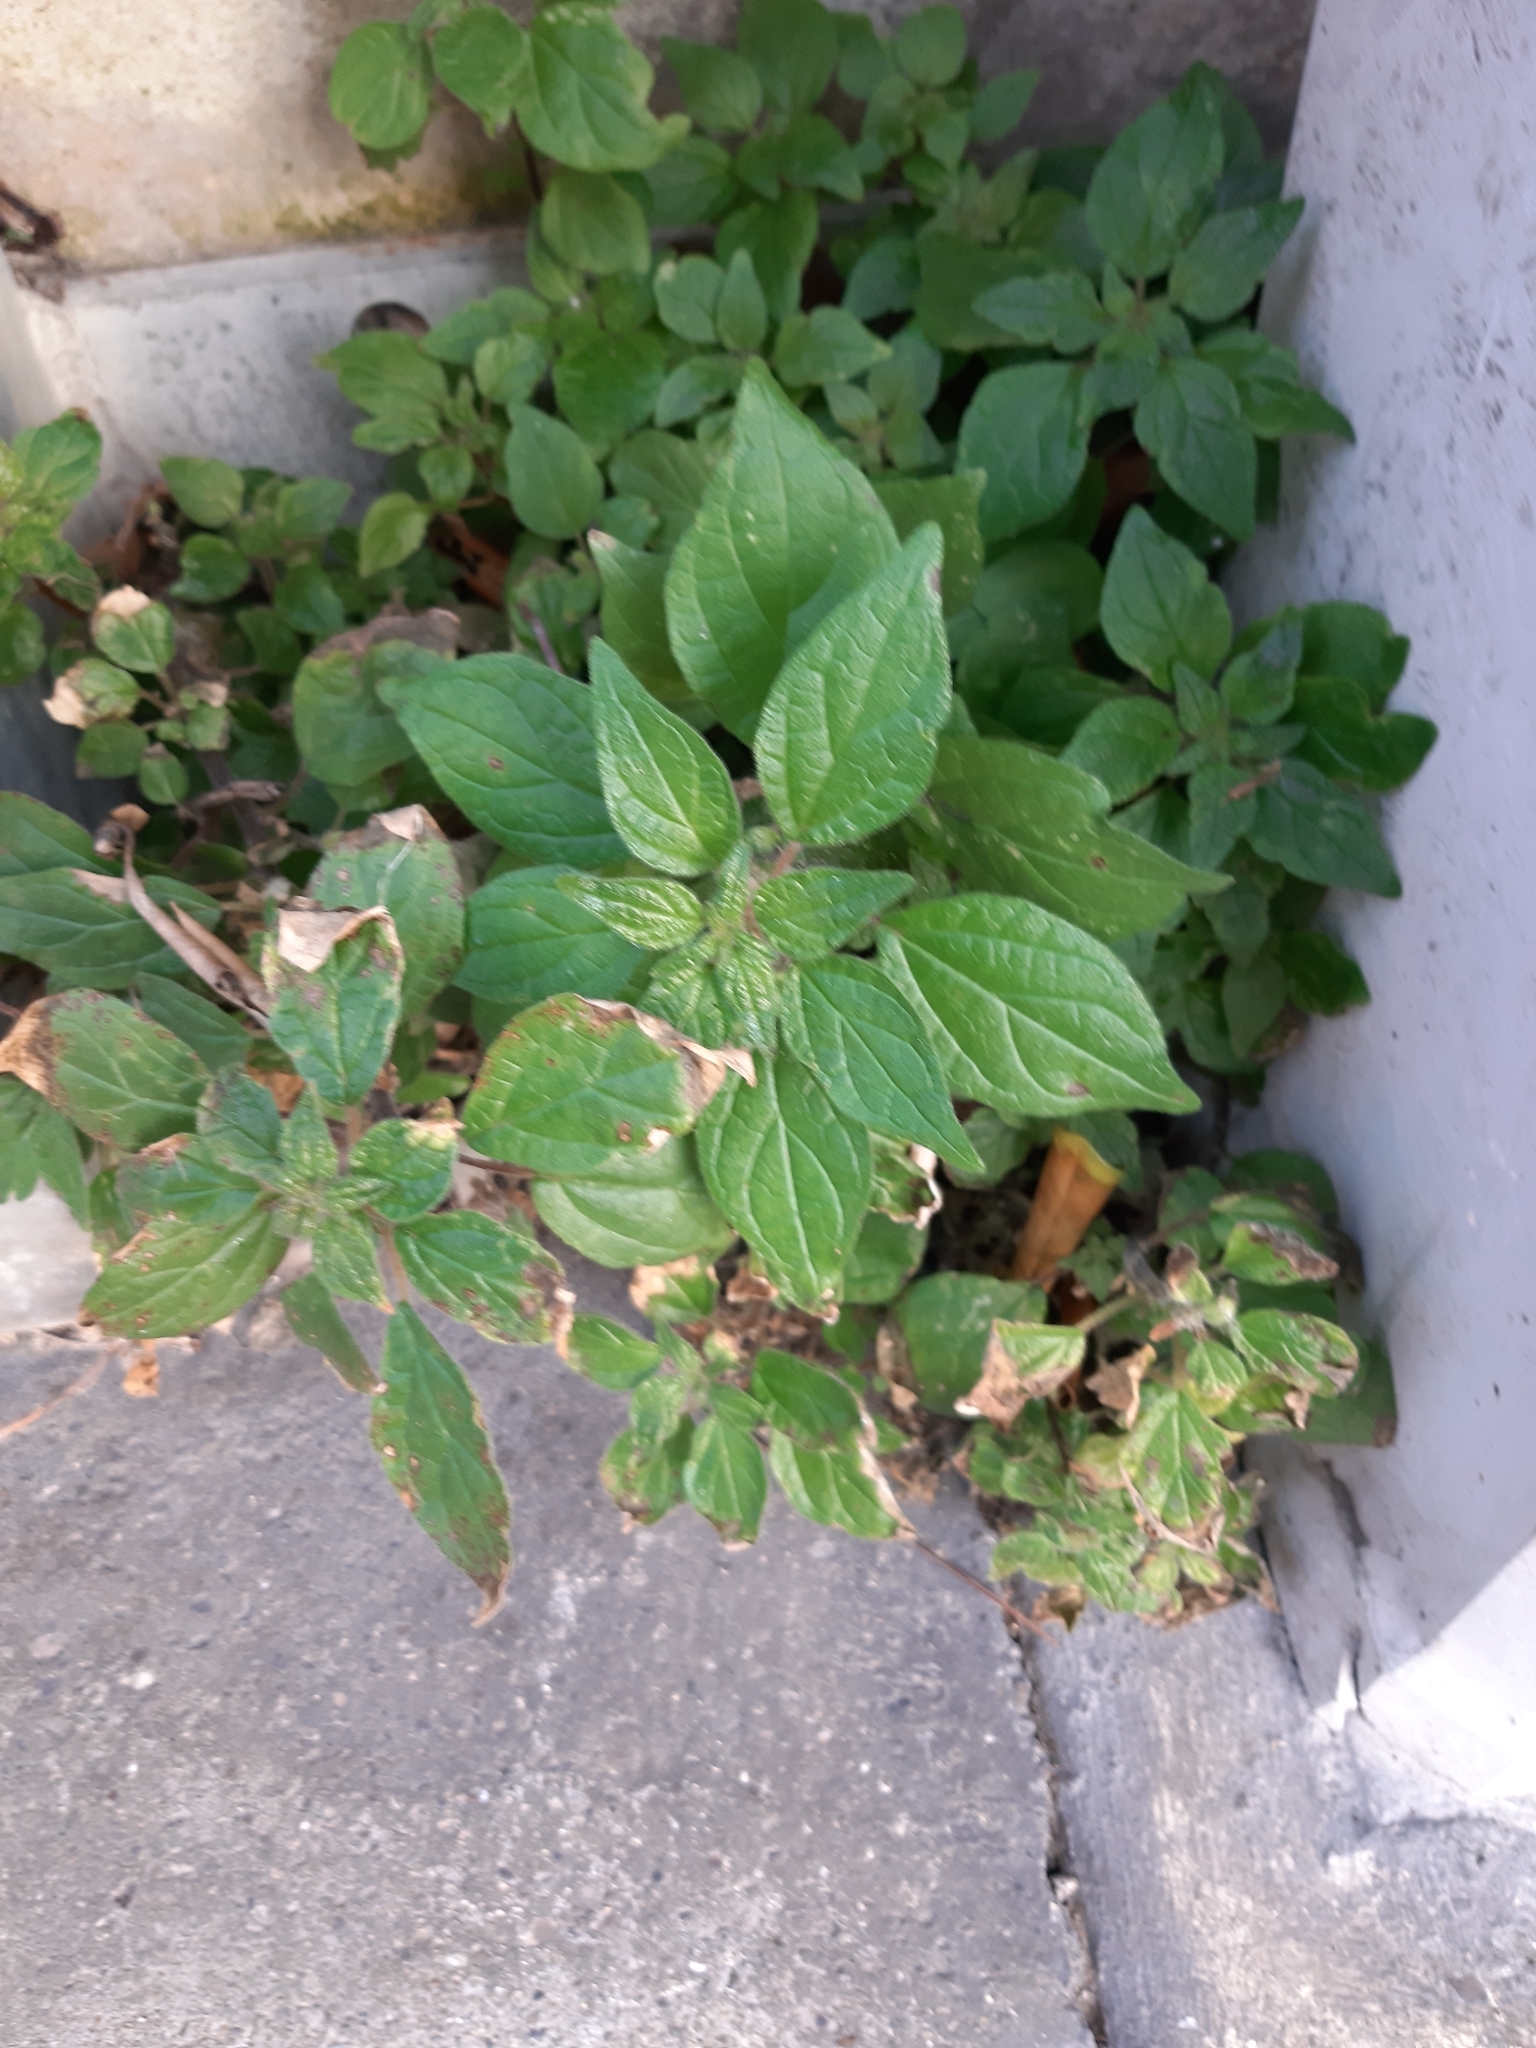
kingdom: Plantae
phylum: Tracheophyta
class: Magnoliopsida
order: Rosales
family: Urticaceae
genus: Parietaria
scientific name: Parietaria judaica
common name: Pellitory-of-the-wall
